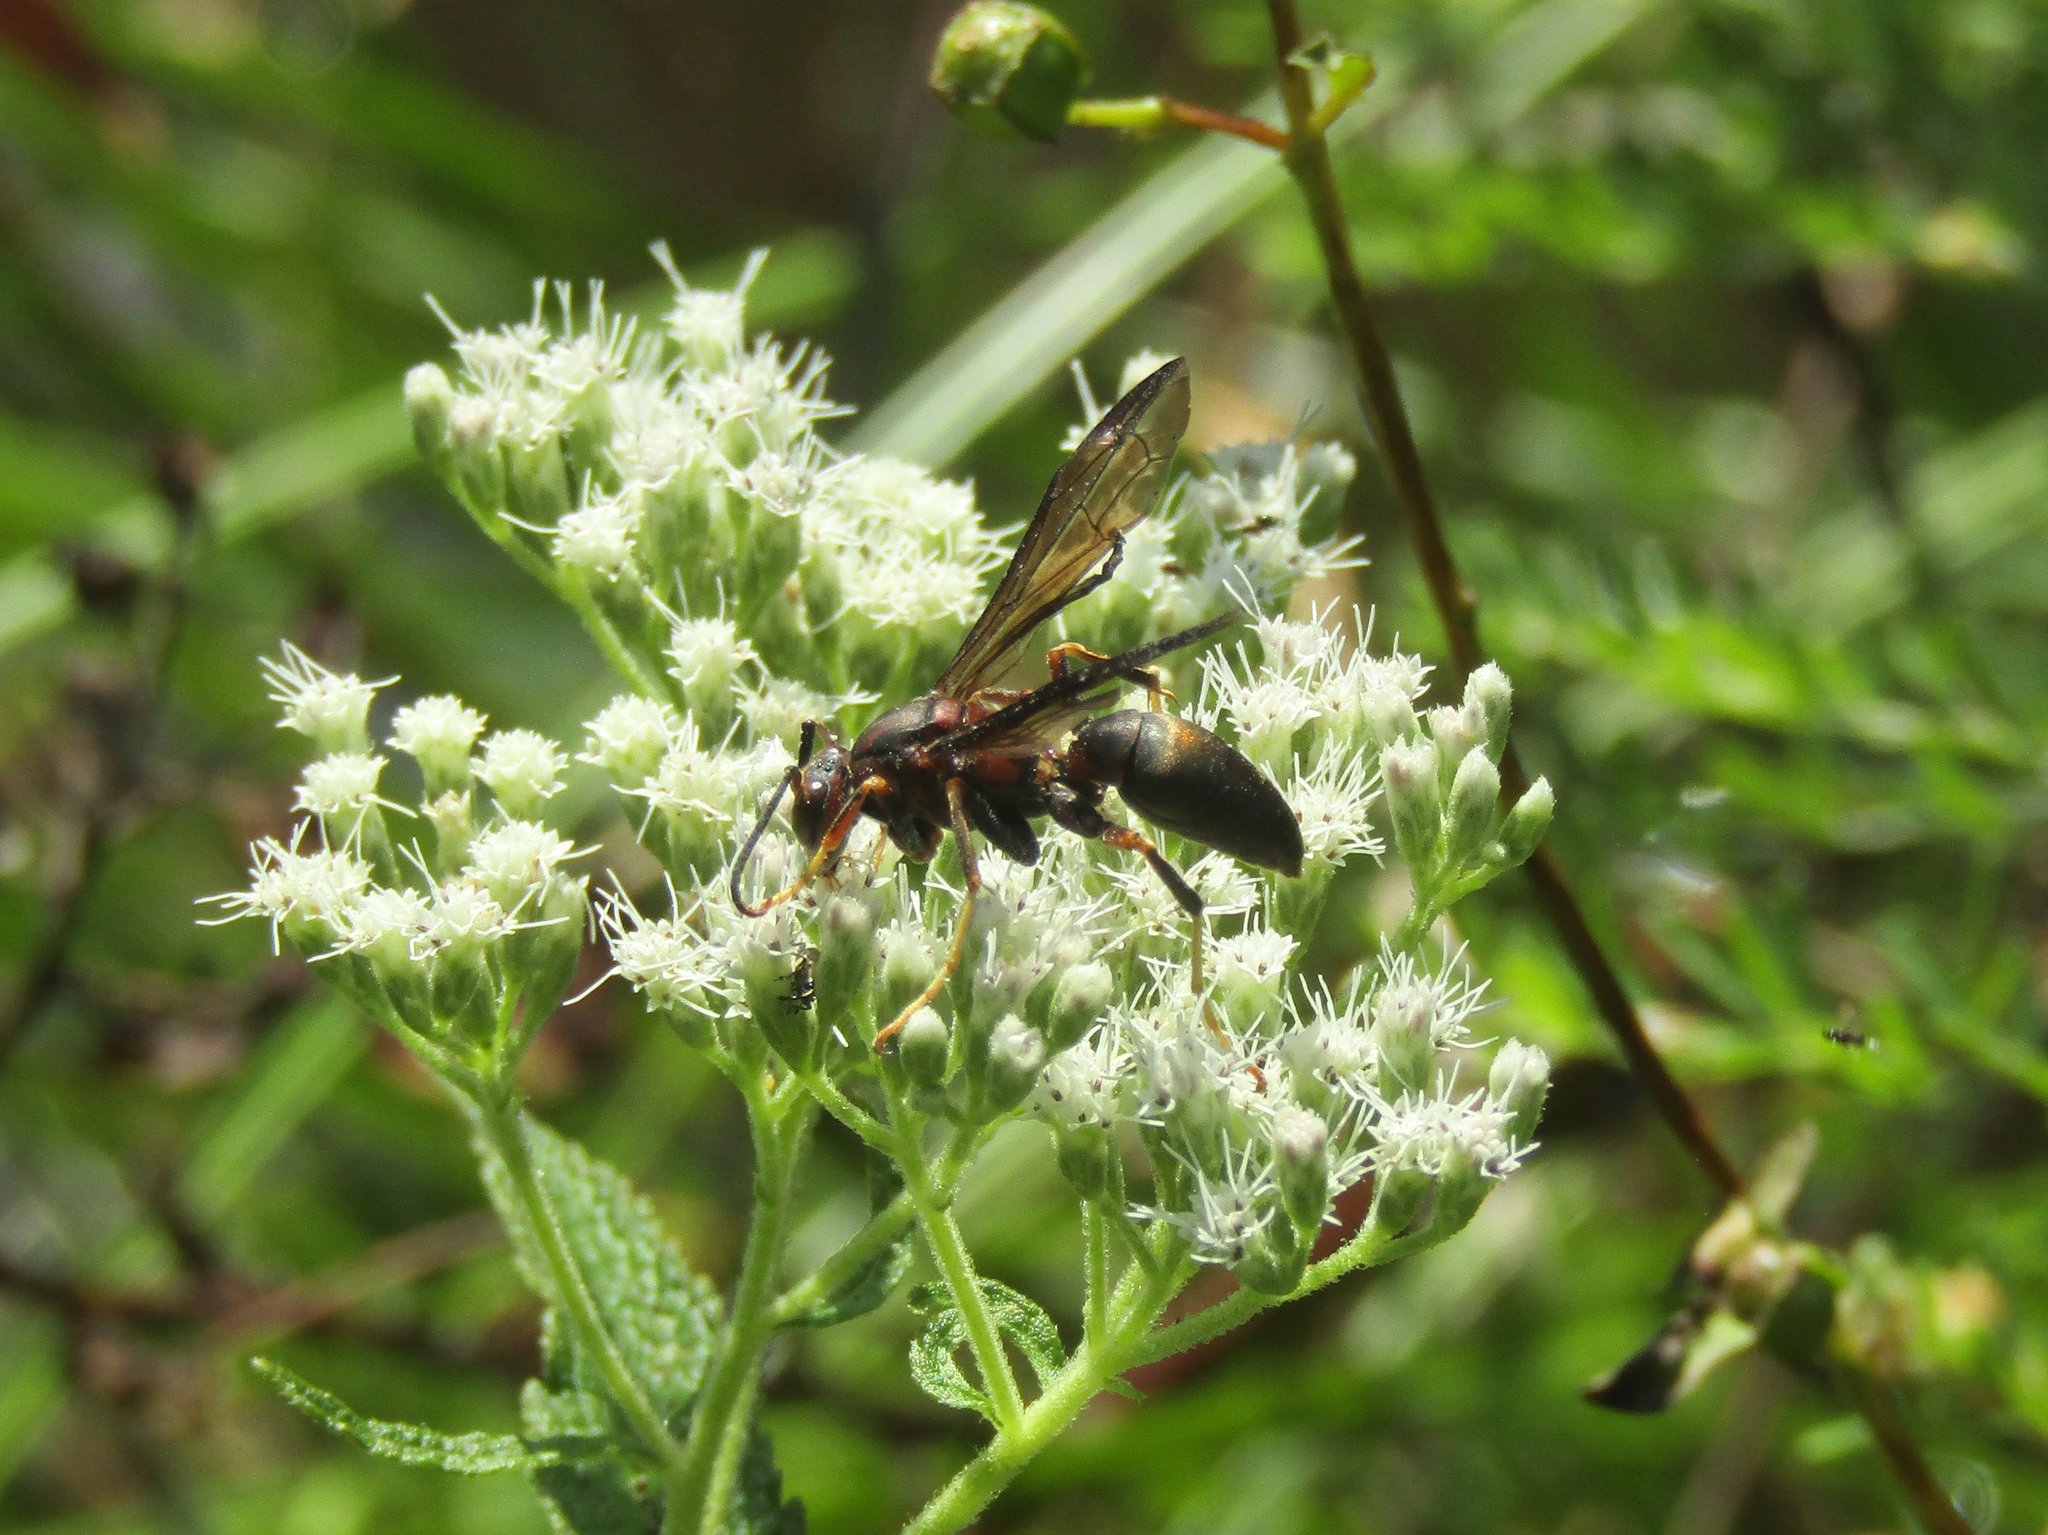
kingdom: Animalia
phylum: Arthropoda
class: Insecta
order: Hymenoptera
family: Eumenidae
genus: Polistes
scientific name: Polistes metricus
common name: Metric paper wasp
